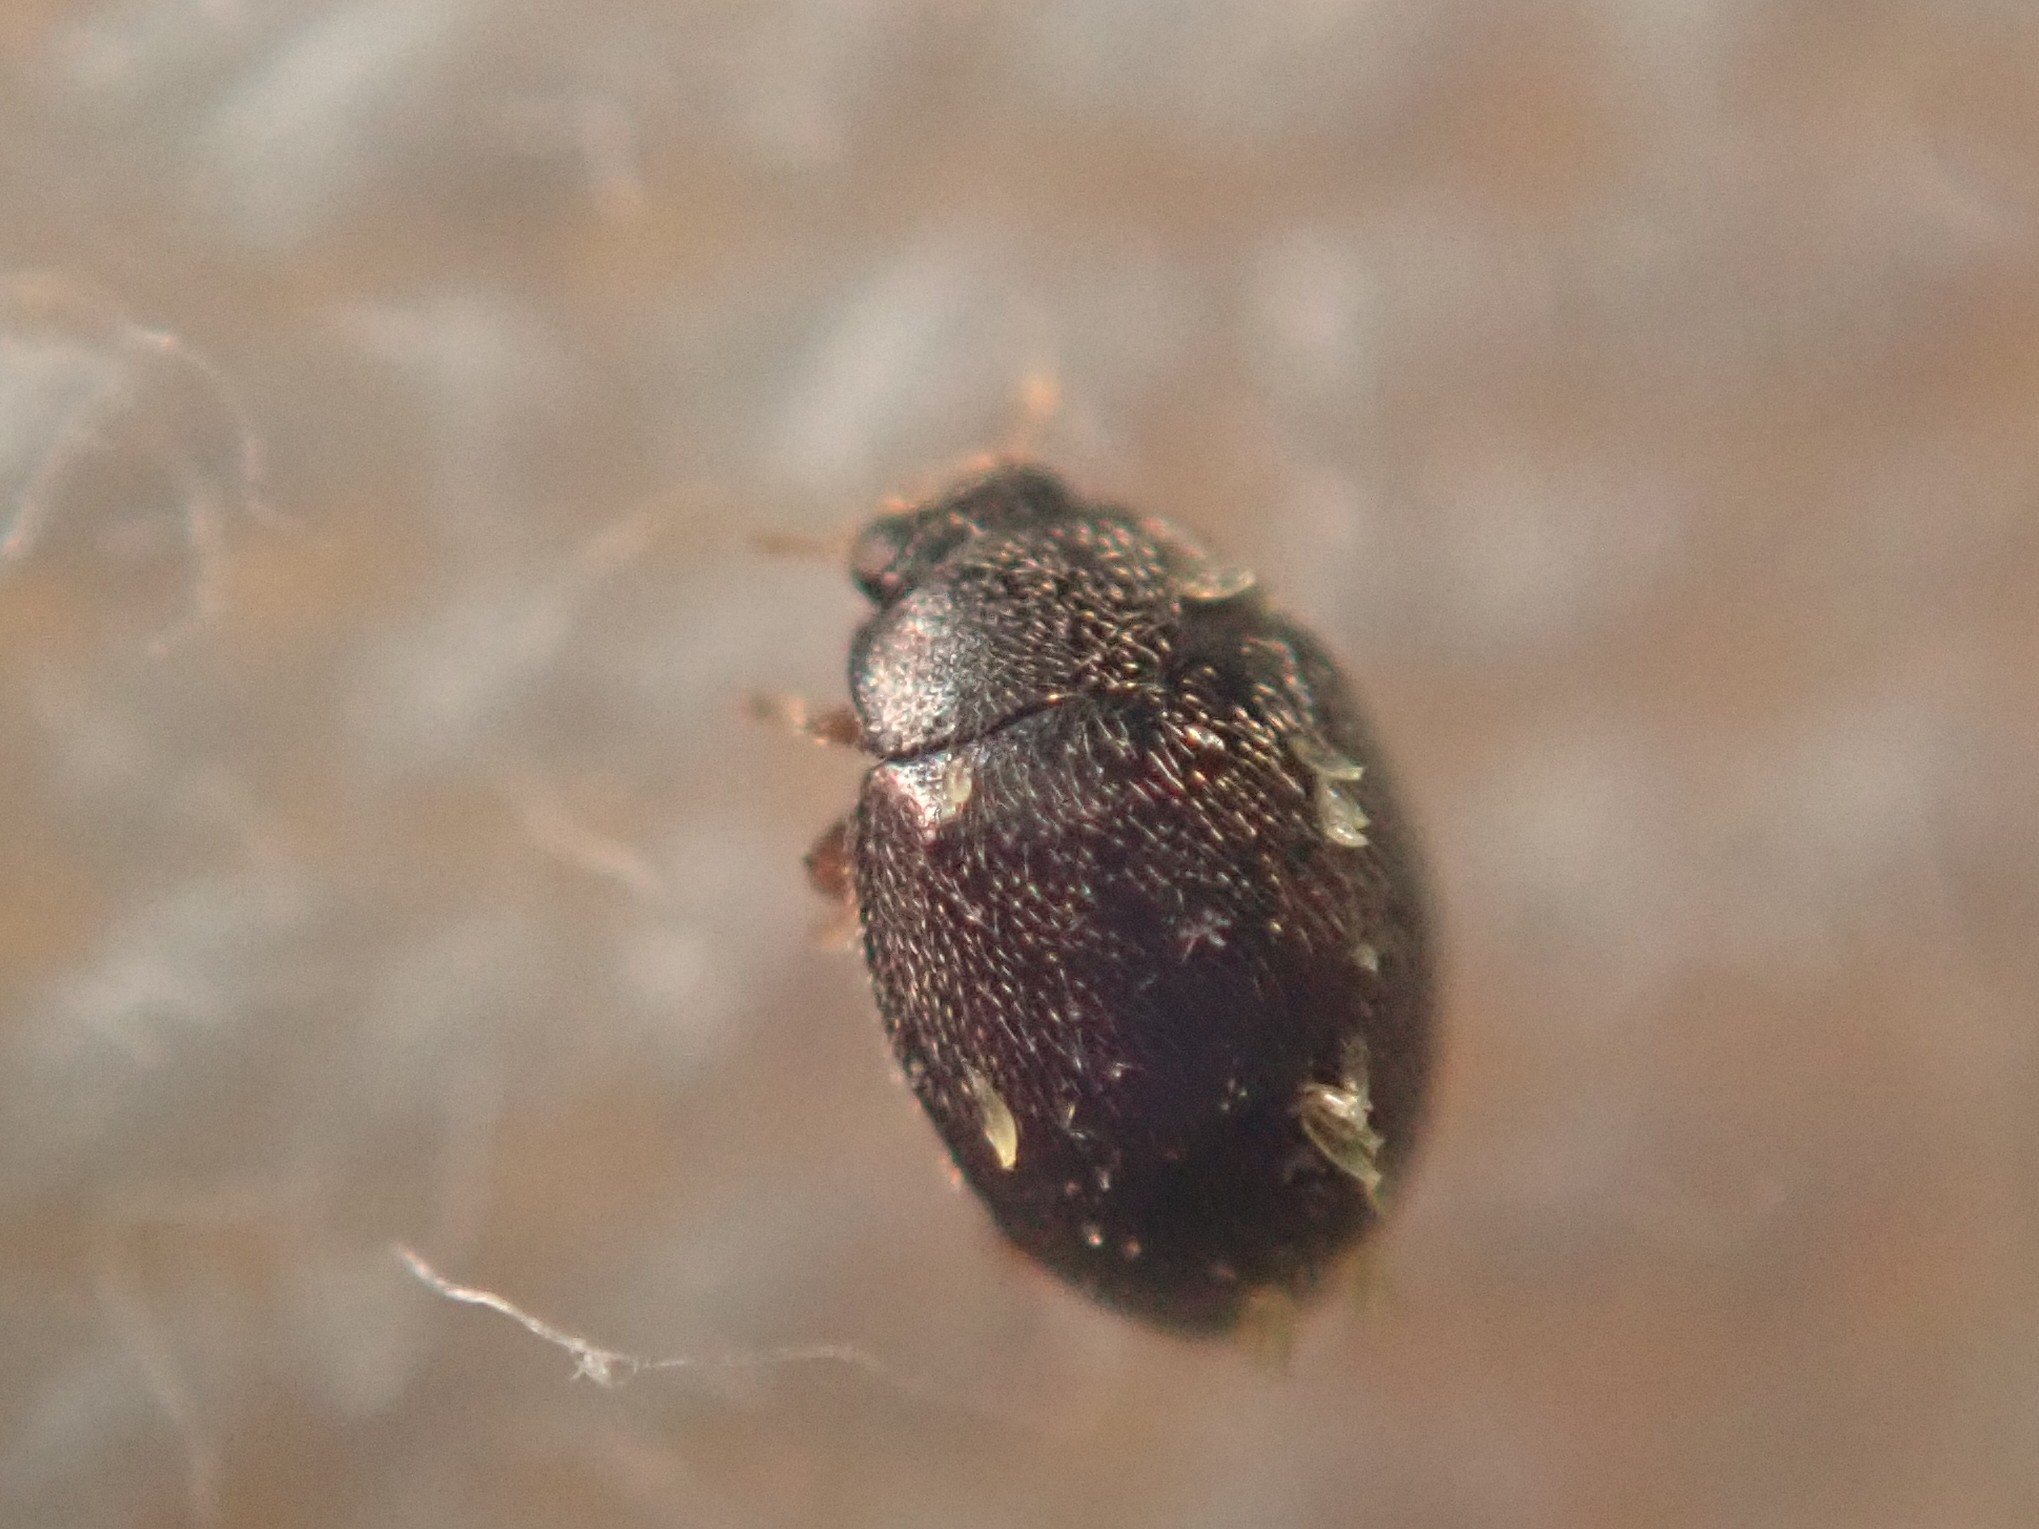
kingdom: Animalia
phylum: Arthropoda
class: Insecta
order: Coleoptera
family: Coccinellidae
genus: Stethorus
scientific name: Stethorus pusillus
